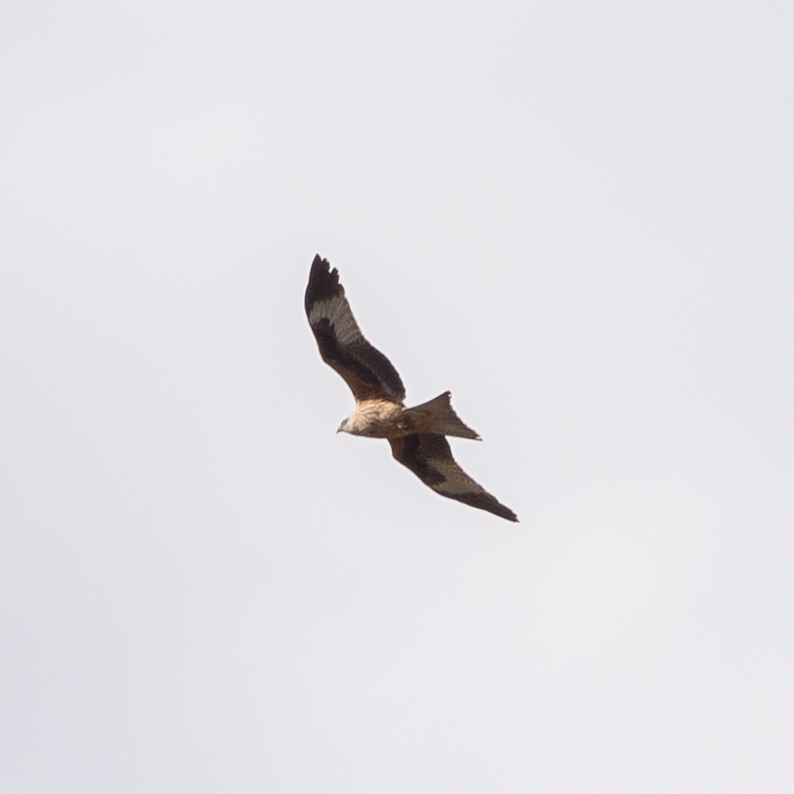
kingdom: Animalia
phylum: Chordata
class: Aves
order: Accipitriformes
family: Accipitridae
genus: Milvus
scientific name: Milvus milvus
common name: Red kite
